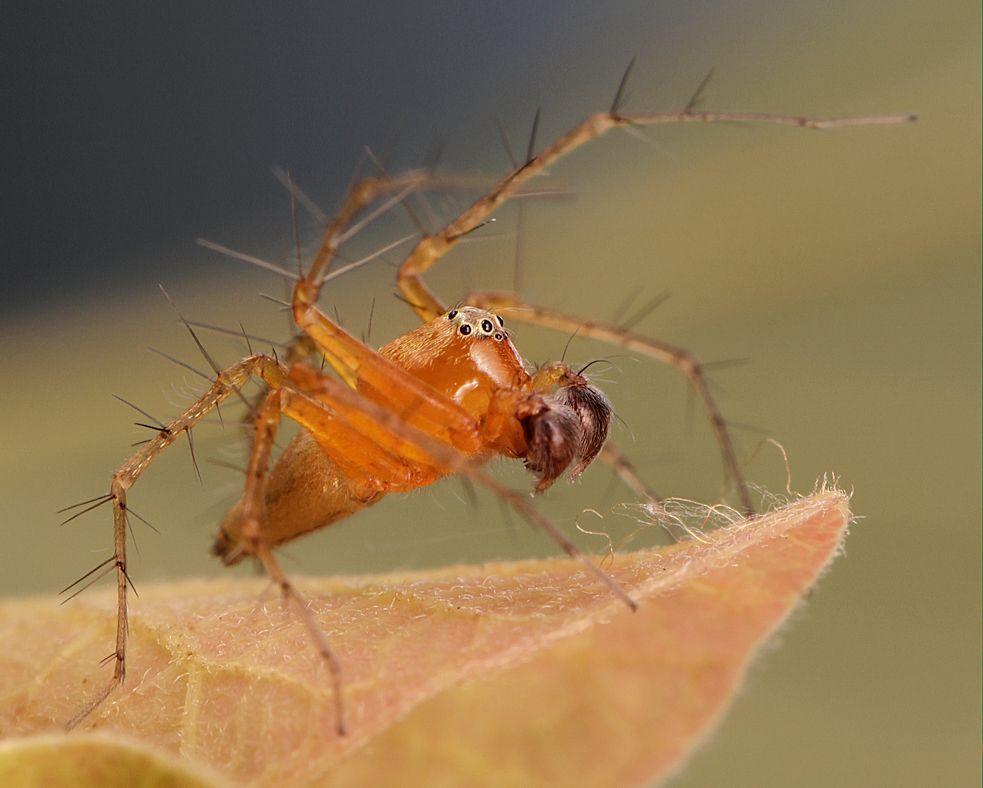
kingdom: Animalia
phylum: Arthropoda
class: Arachnida
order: Araneae
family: Oxyopidae
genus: Oxyopes
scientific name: Oxyopes vogelsangeri
